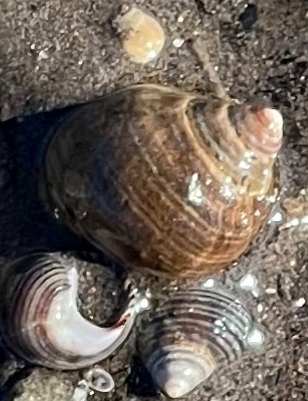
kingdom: Animalia
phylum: Mollusca
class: Gastropoda
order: Littorinimorpha
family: Littorinidae
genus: Littorina
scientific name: Littorina littorea
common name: Common periwinkle
